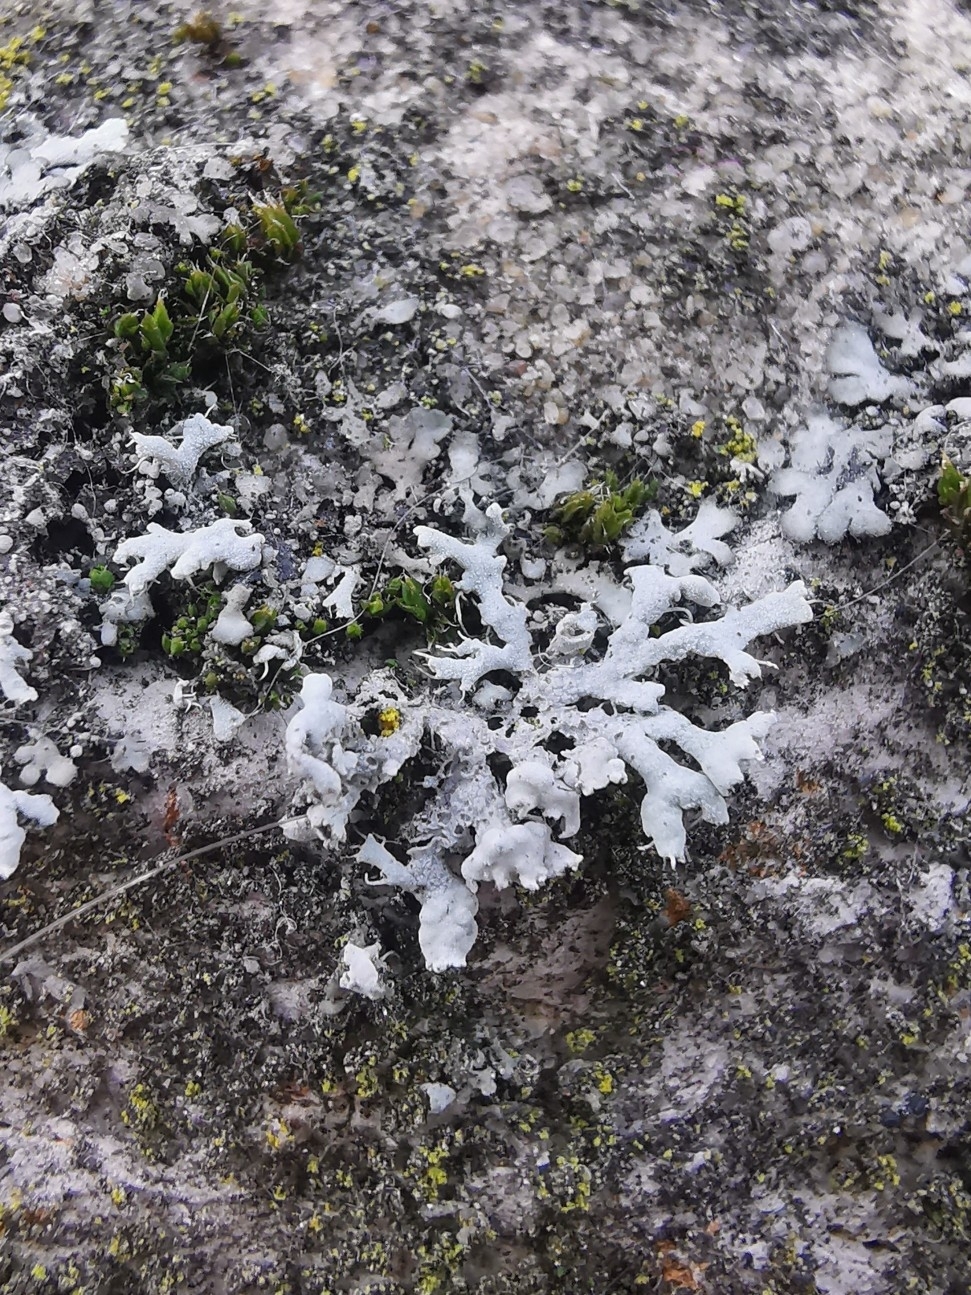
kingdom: Fungi
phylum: Ascomycota
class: Lecanoromycetes
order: Caliciales
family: Physciaceae
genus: Physcia
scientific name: Physcia adscendens
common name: Hooded rosette lichen
